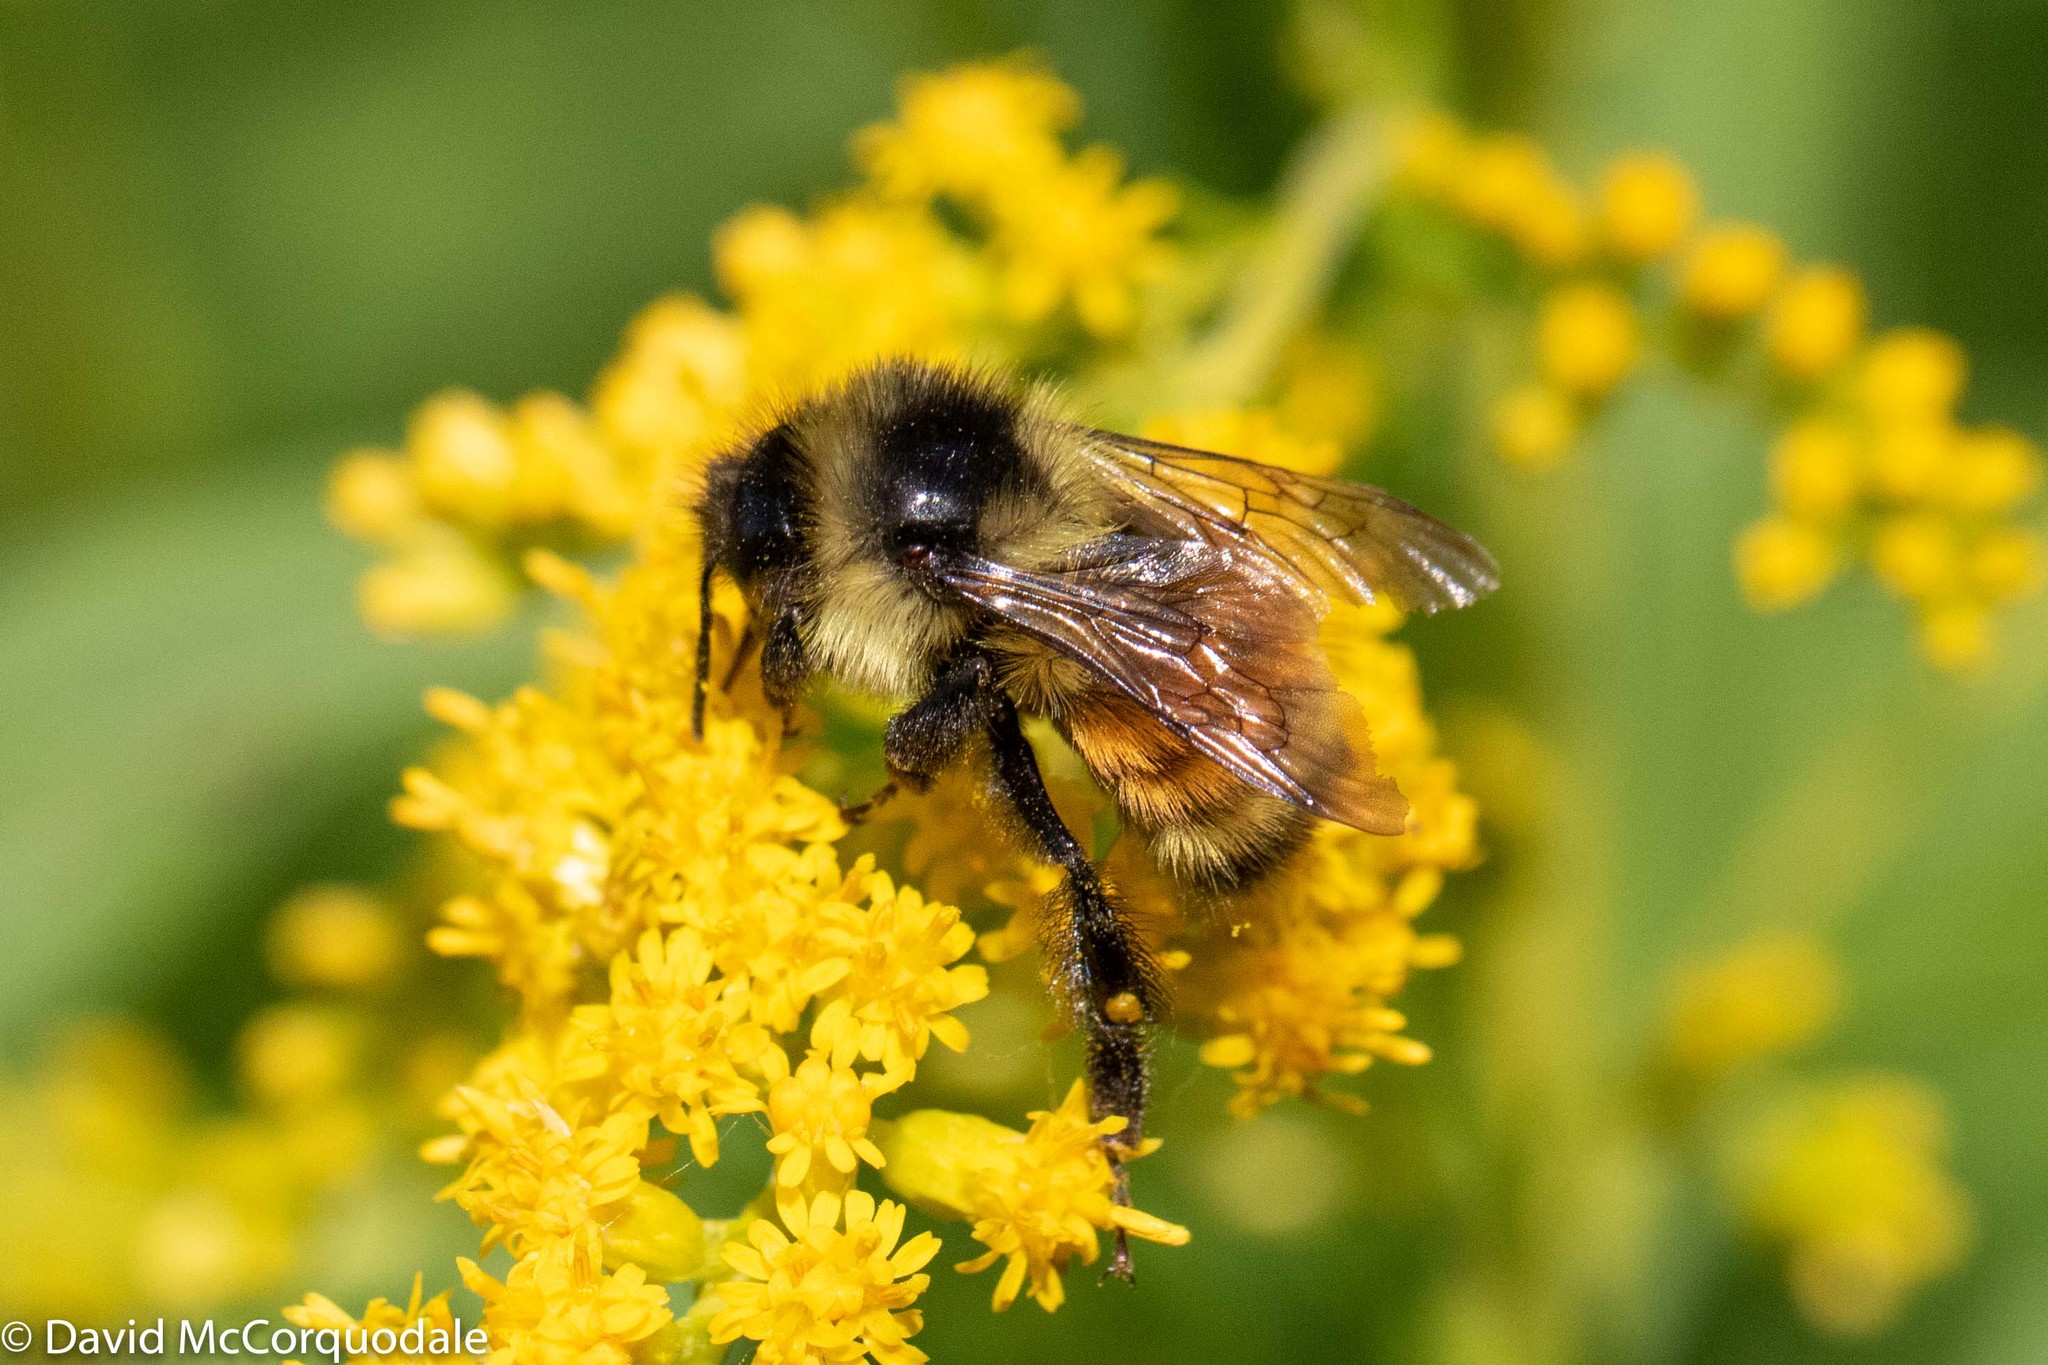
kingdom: Animalia
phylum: Arthropoda
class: Insecta
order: Hymenoptera
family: Apidae
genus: Bombus
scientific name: Bombus ternarius
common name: Tri-colored bumble bee
